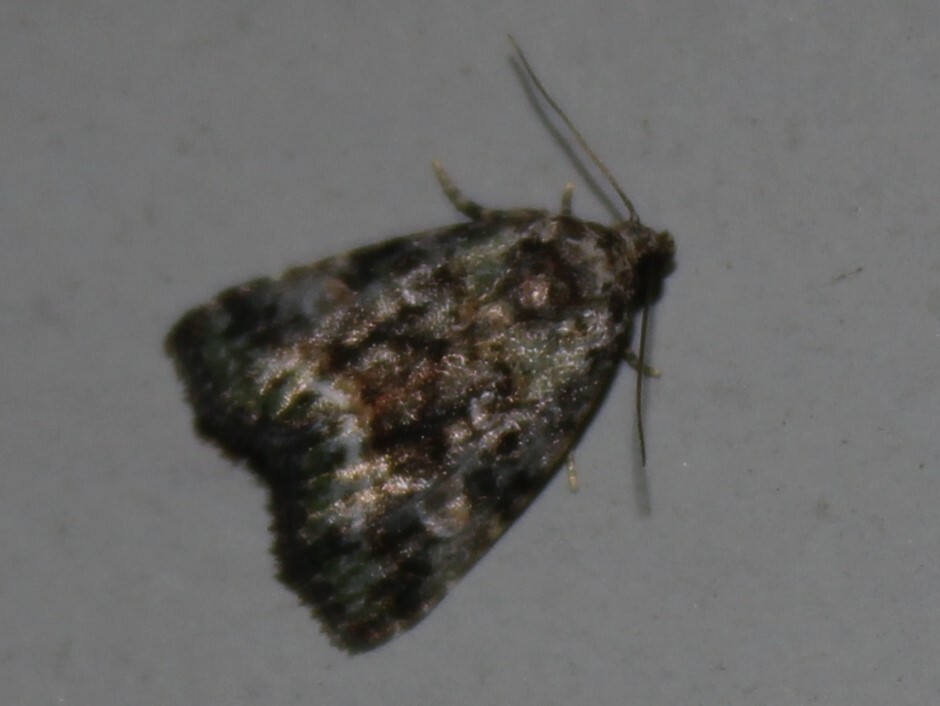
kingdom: Animalia
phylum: Arthropoda
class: Insecta
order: Lepidoptera
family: Noctuidae
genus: Lithacodia
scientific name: Lithacodia musta
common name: Small mossy glyph
